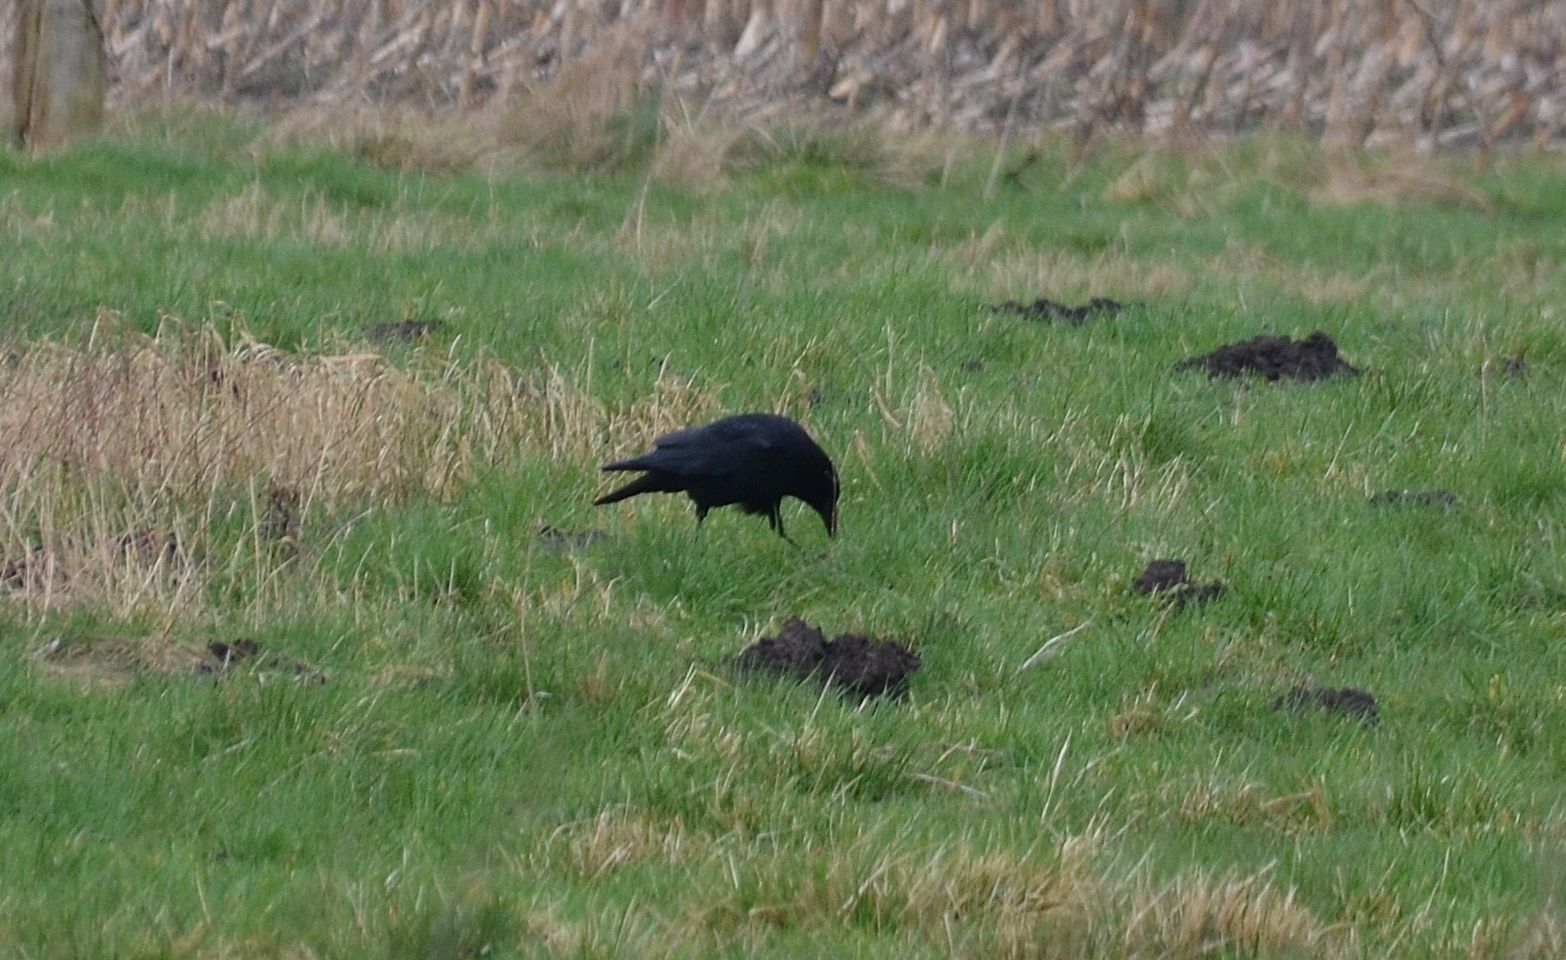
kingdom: Animalia
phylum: Chordata
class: Aves
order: Passeriformes
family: Corvidae
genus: Corvus
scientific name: Corvus corone
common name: Carrion crow
